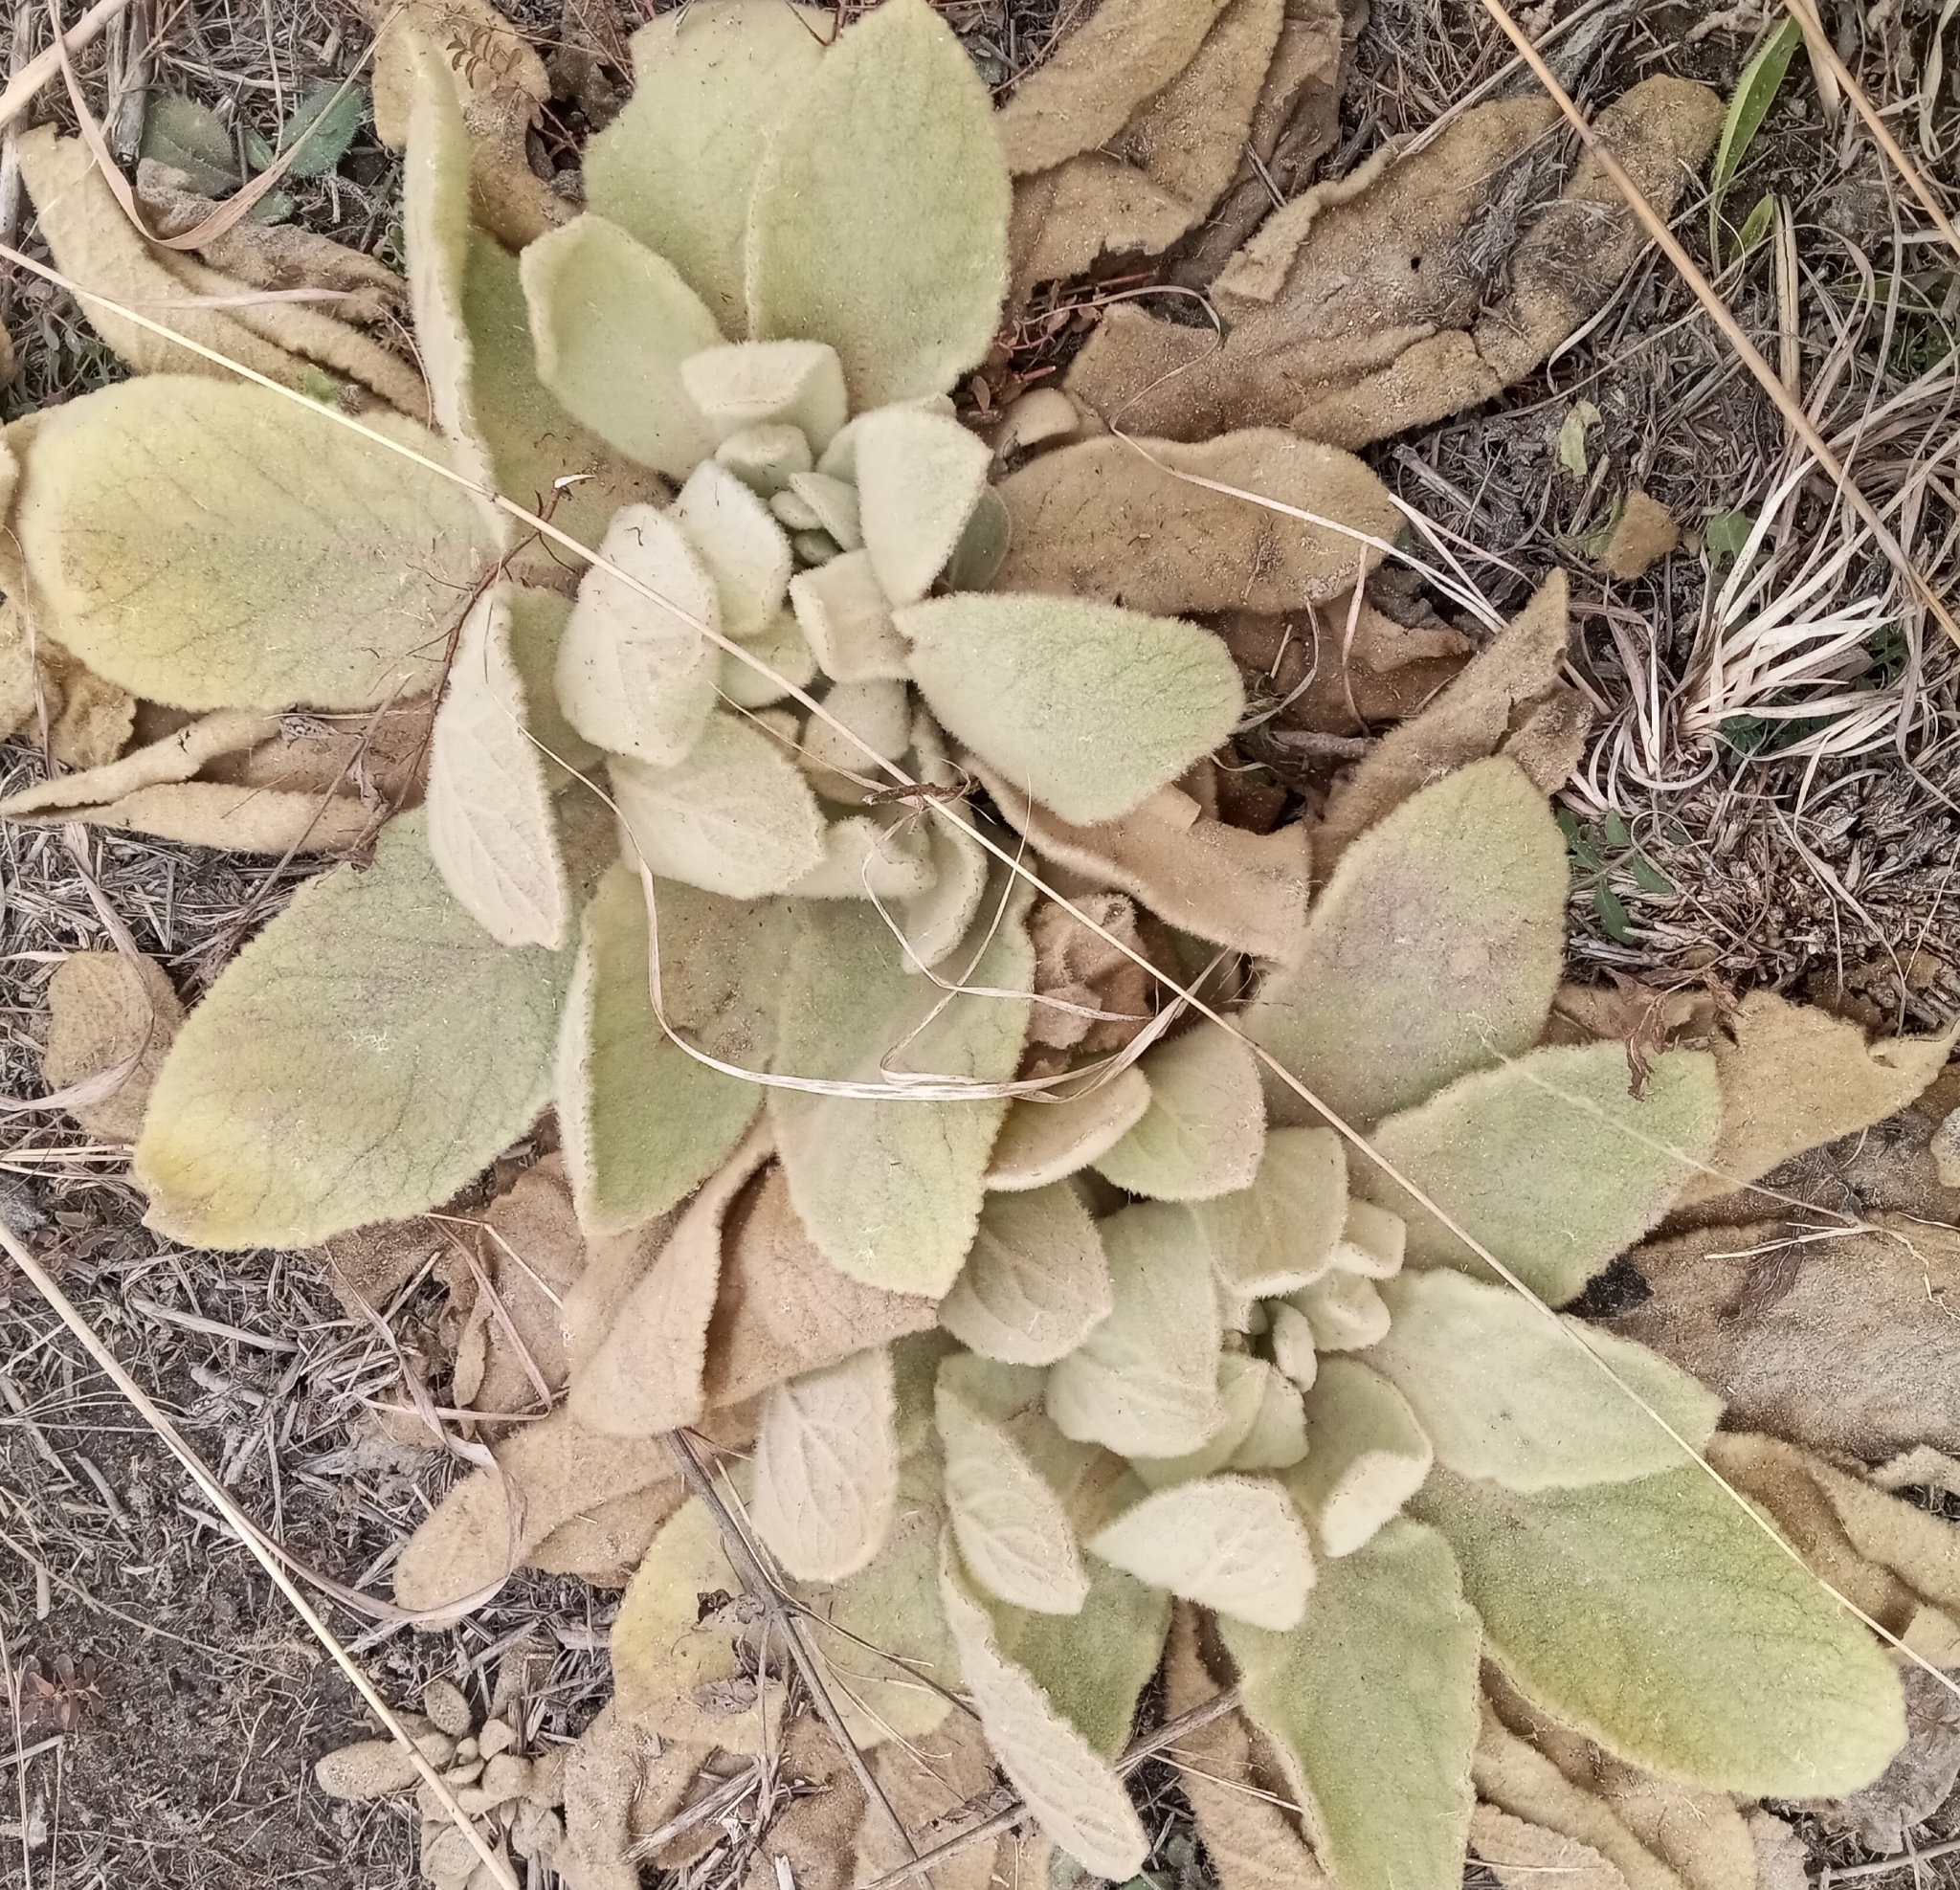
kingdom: Plantae
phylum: Tracheophyta
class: Magnoliopsida
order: Lamiales
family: Scrophulariaceae
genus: Verbascum
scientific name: Verbascum thapsus
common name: Common mullein
